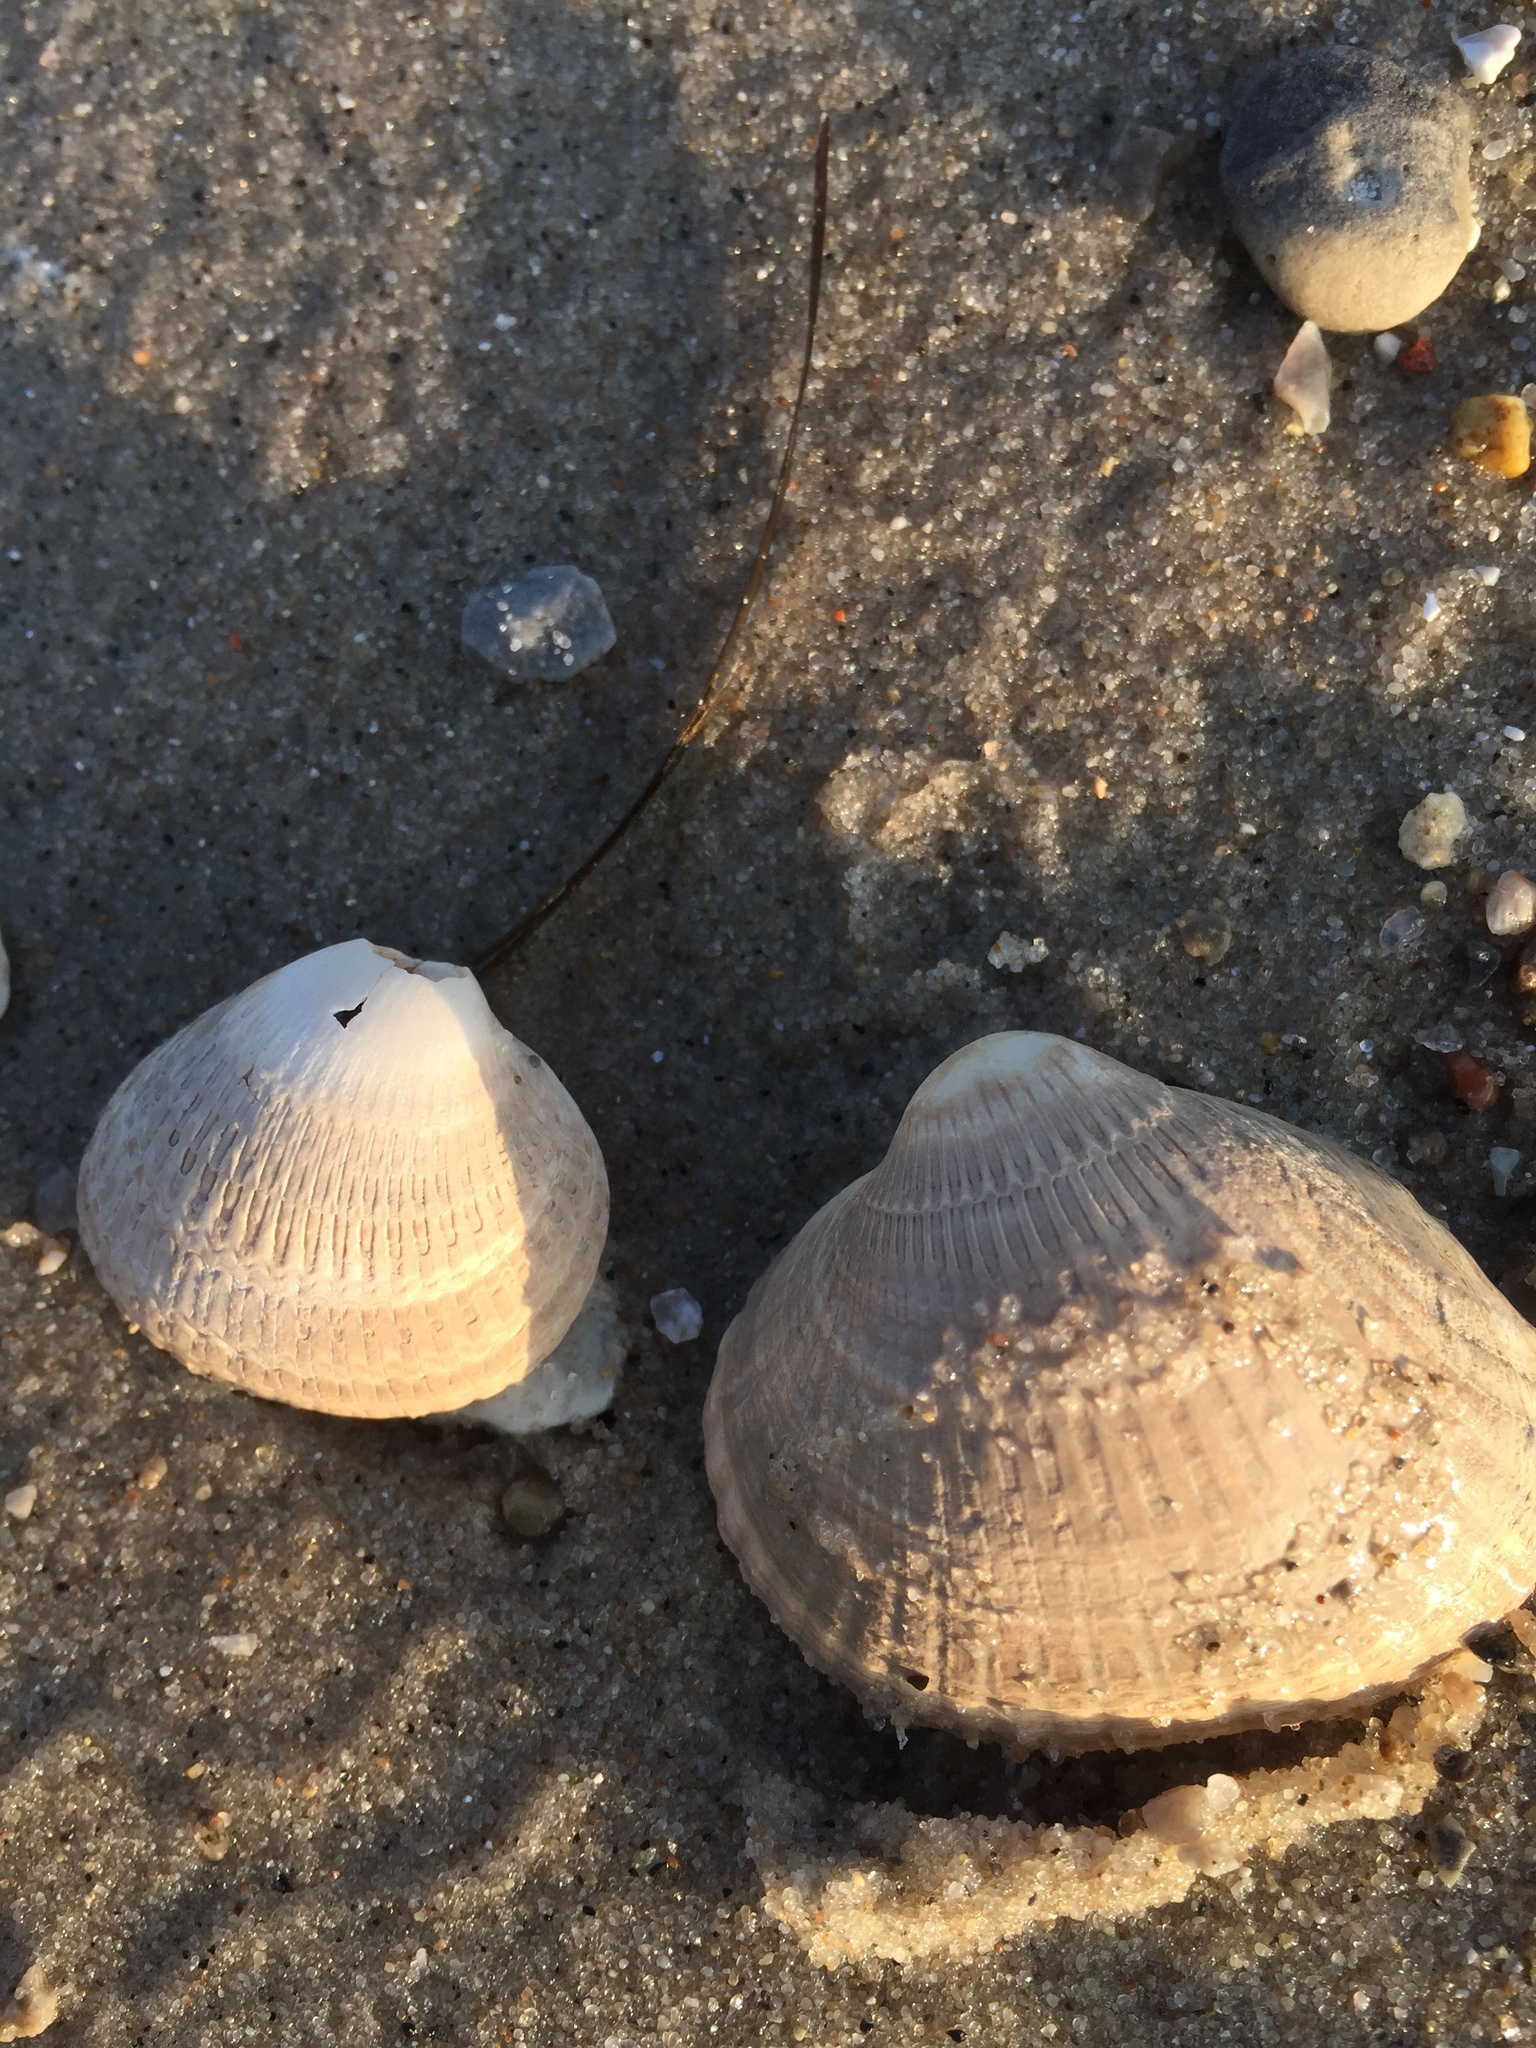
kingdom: Animalia
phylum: Mollusca
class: Bivalvia
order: Cardiida
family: Cardiidae
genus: Cerastoderma
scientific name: Cerastoderma edule
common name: Common cockle
